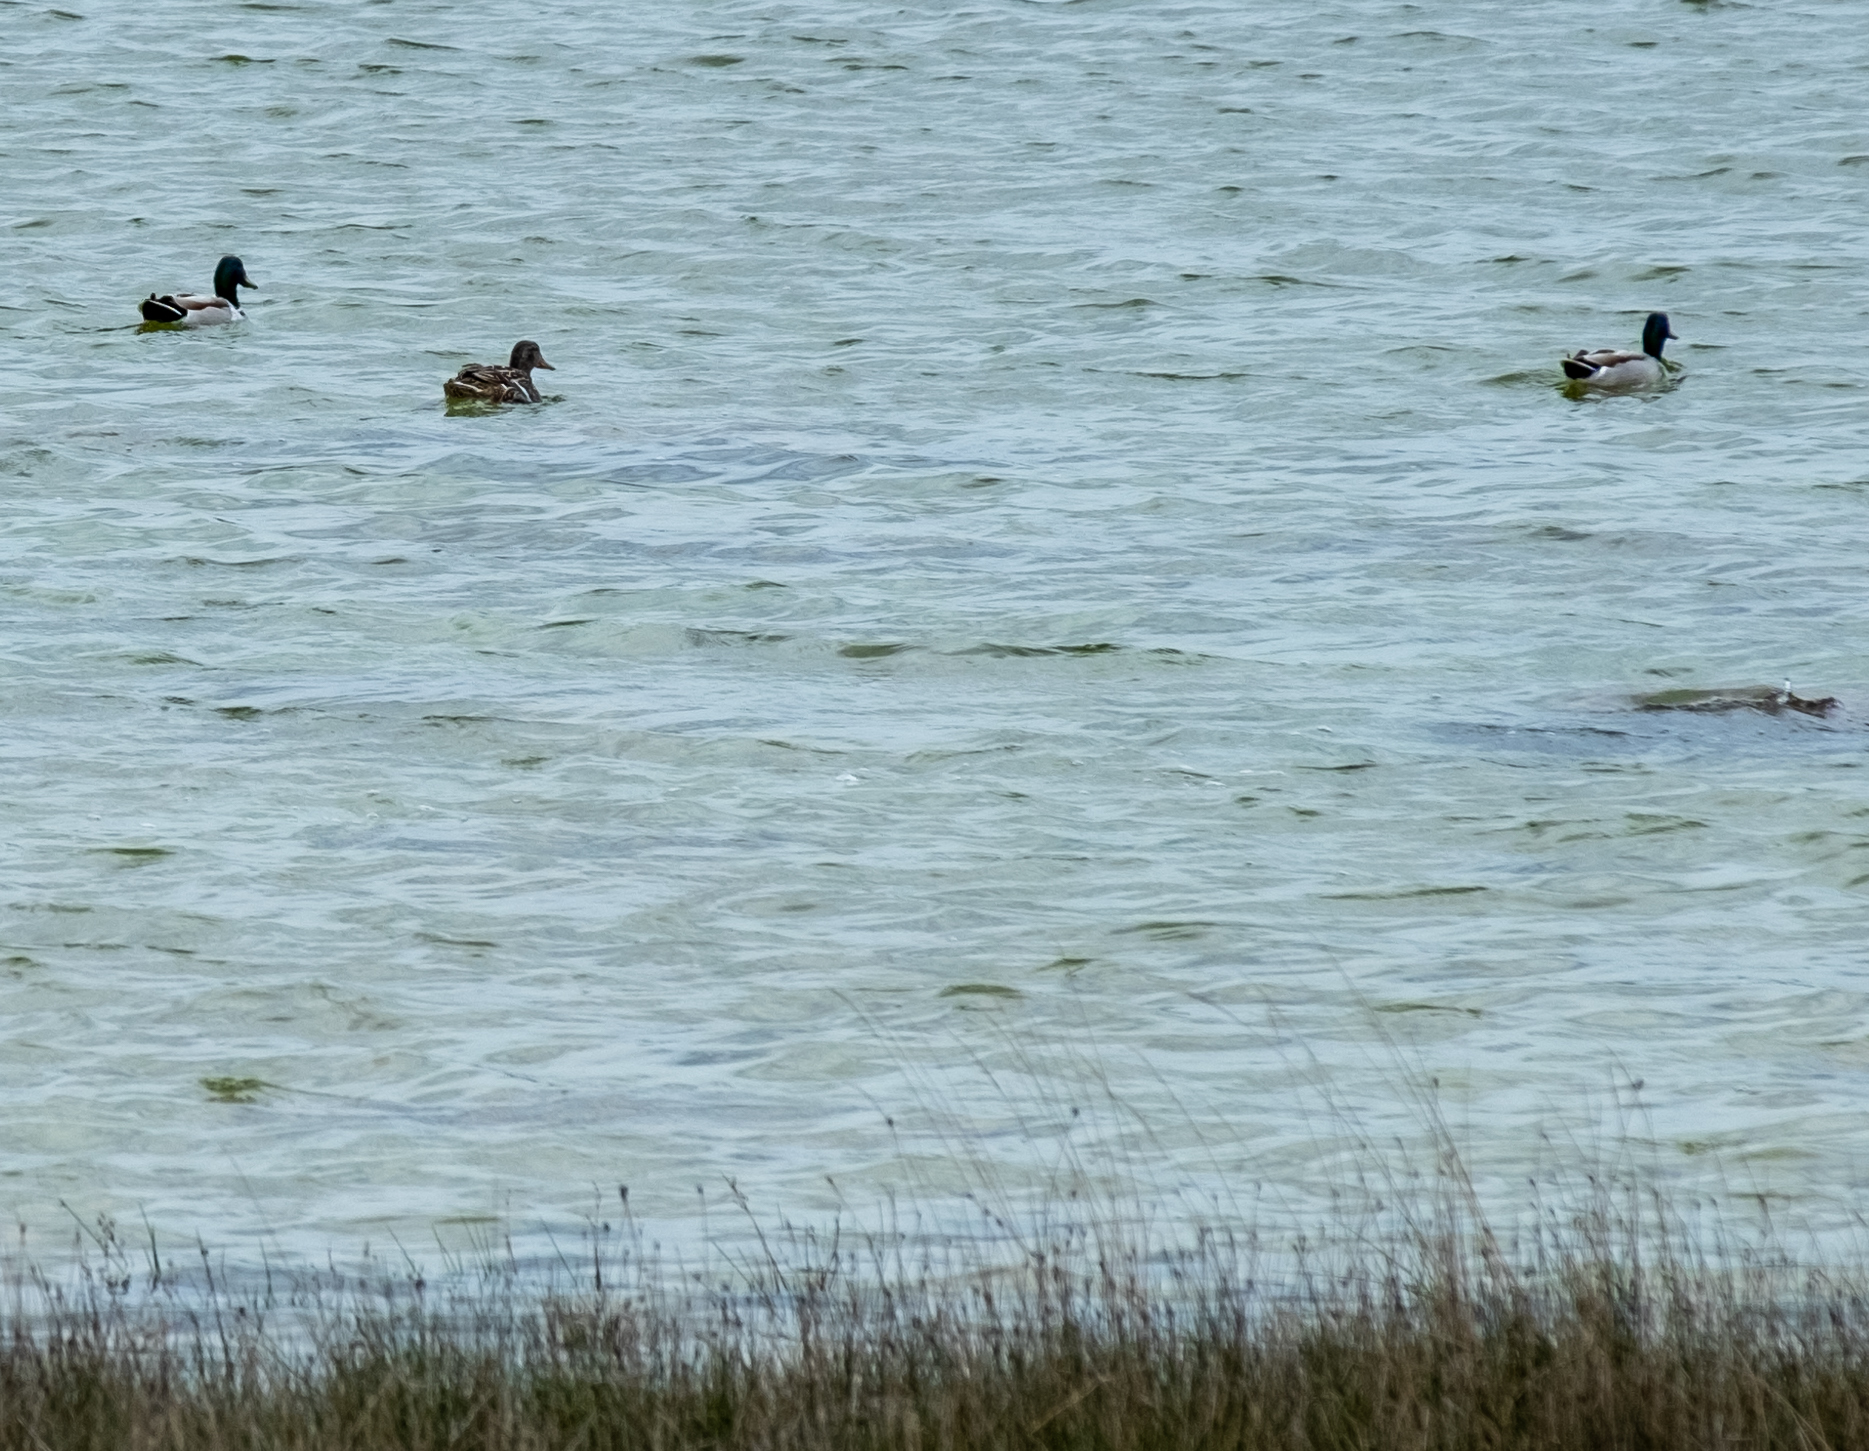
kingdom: Animalia
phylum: Chordata
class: Aves
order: Anseriformes
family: Anatidae
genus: Anas
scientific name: Anas platyrhynchos
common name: Mallard
